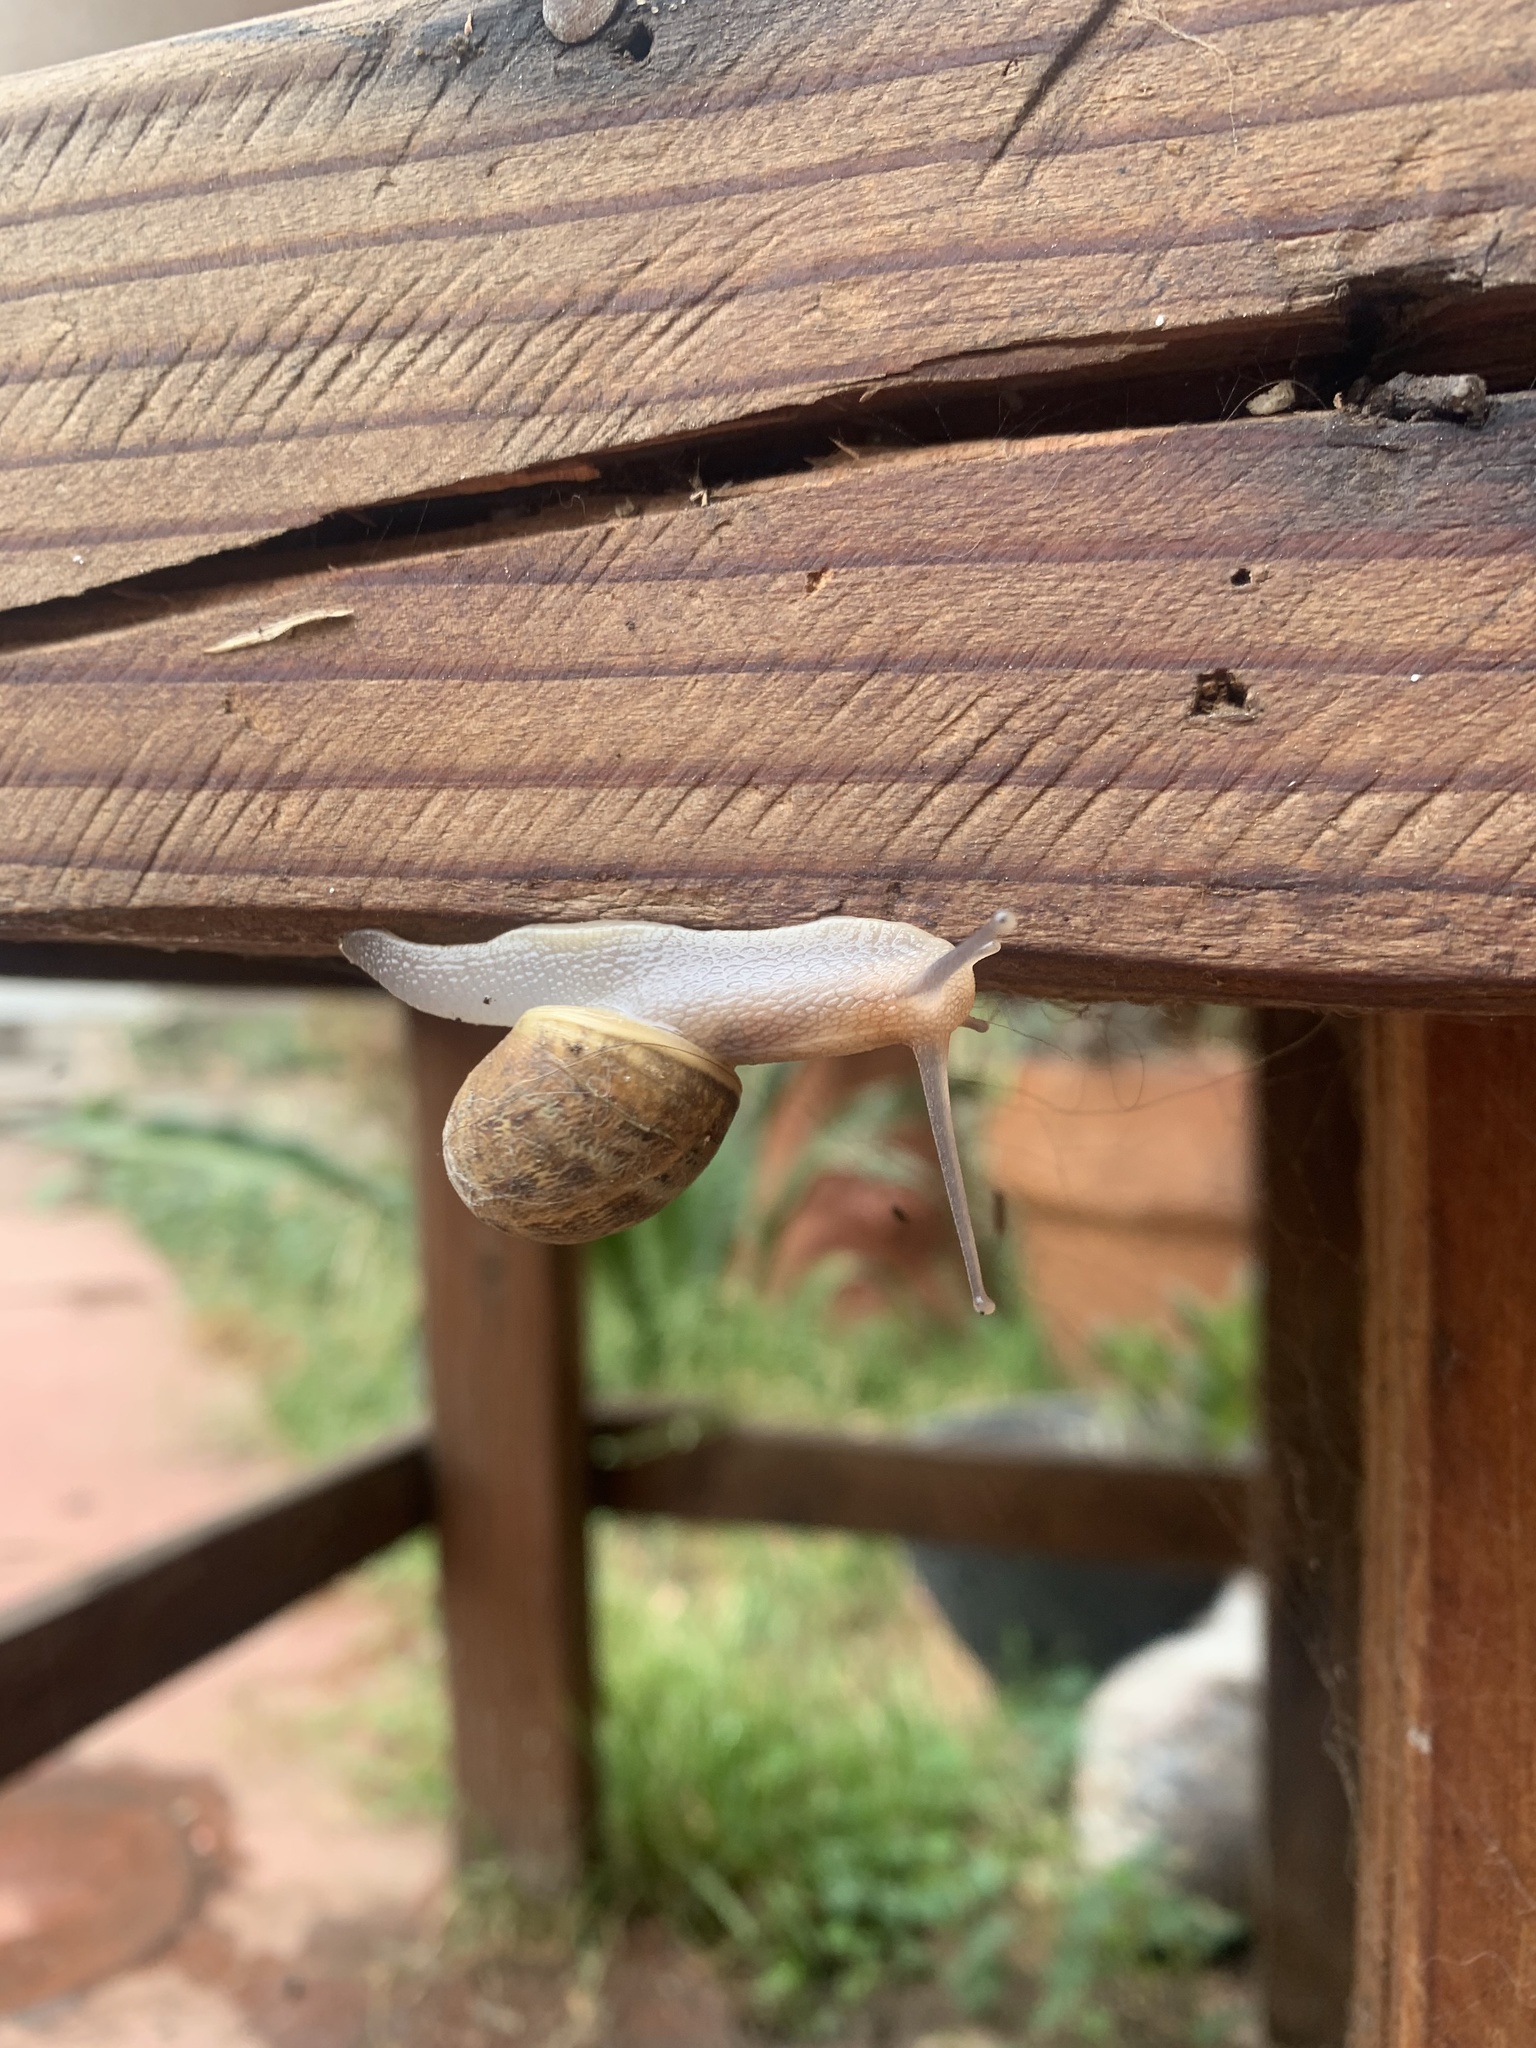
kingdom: Animalia
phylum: Mollusca
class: Gastropoda
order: Stylommatophora
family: Helicidae
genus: Cornu
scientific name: Cornu aspersum
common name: Brown garden snail
